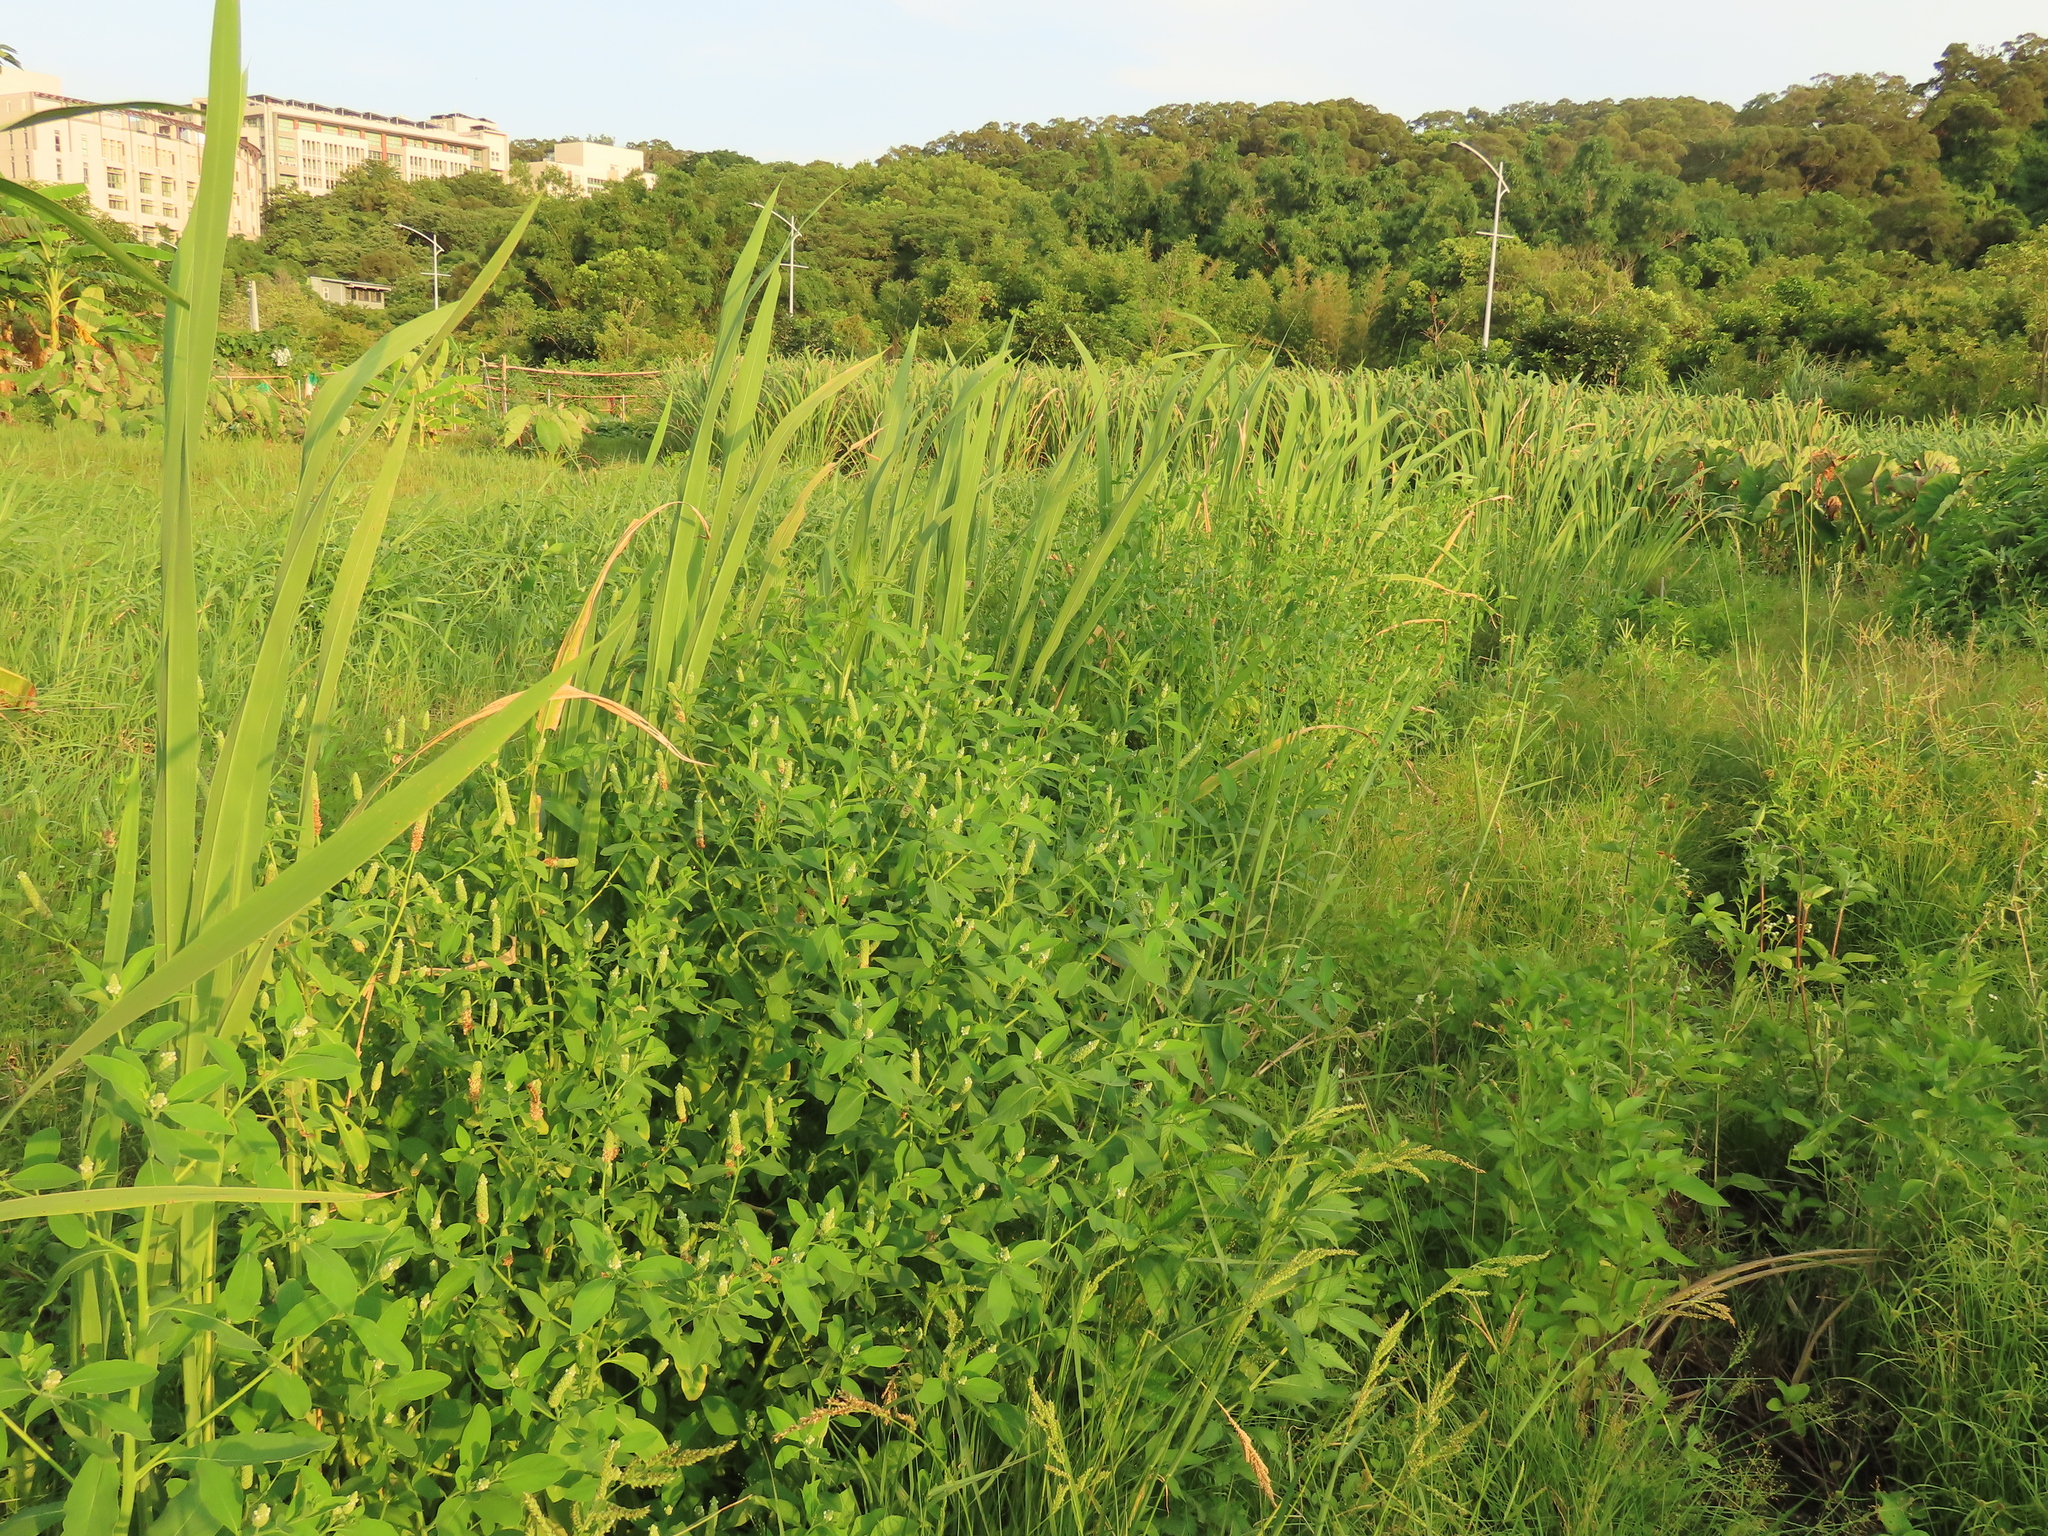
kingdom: Plantae
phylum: Tracheophyta
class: Magnoliopsida
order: Solanales
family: Sphenocleaceae
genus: Sphenoclea
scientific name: Sphenoclea zeylanica
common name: Chickenspike
